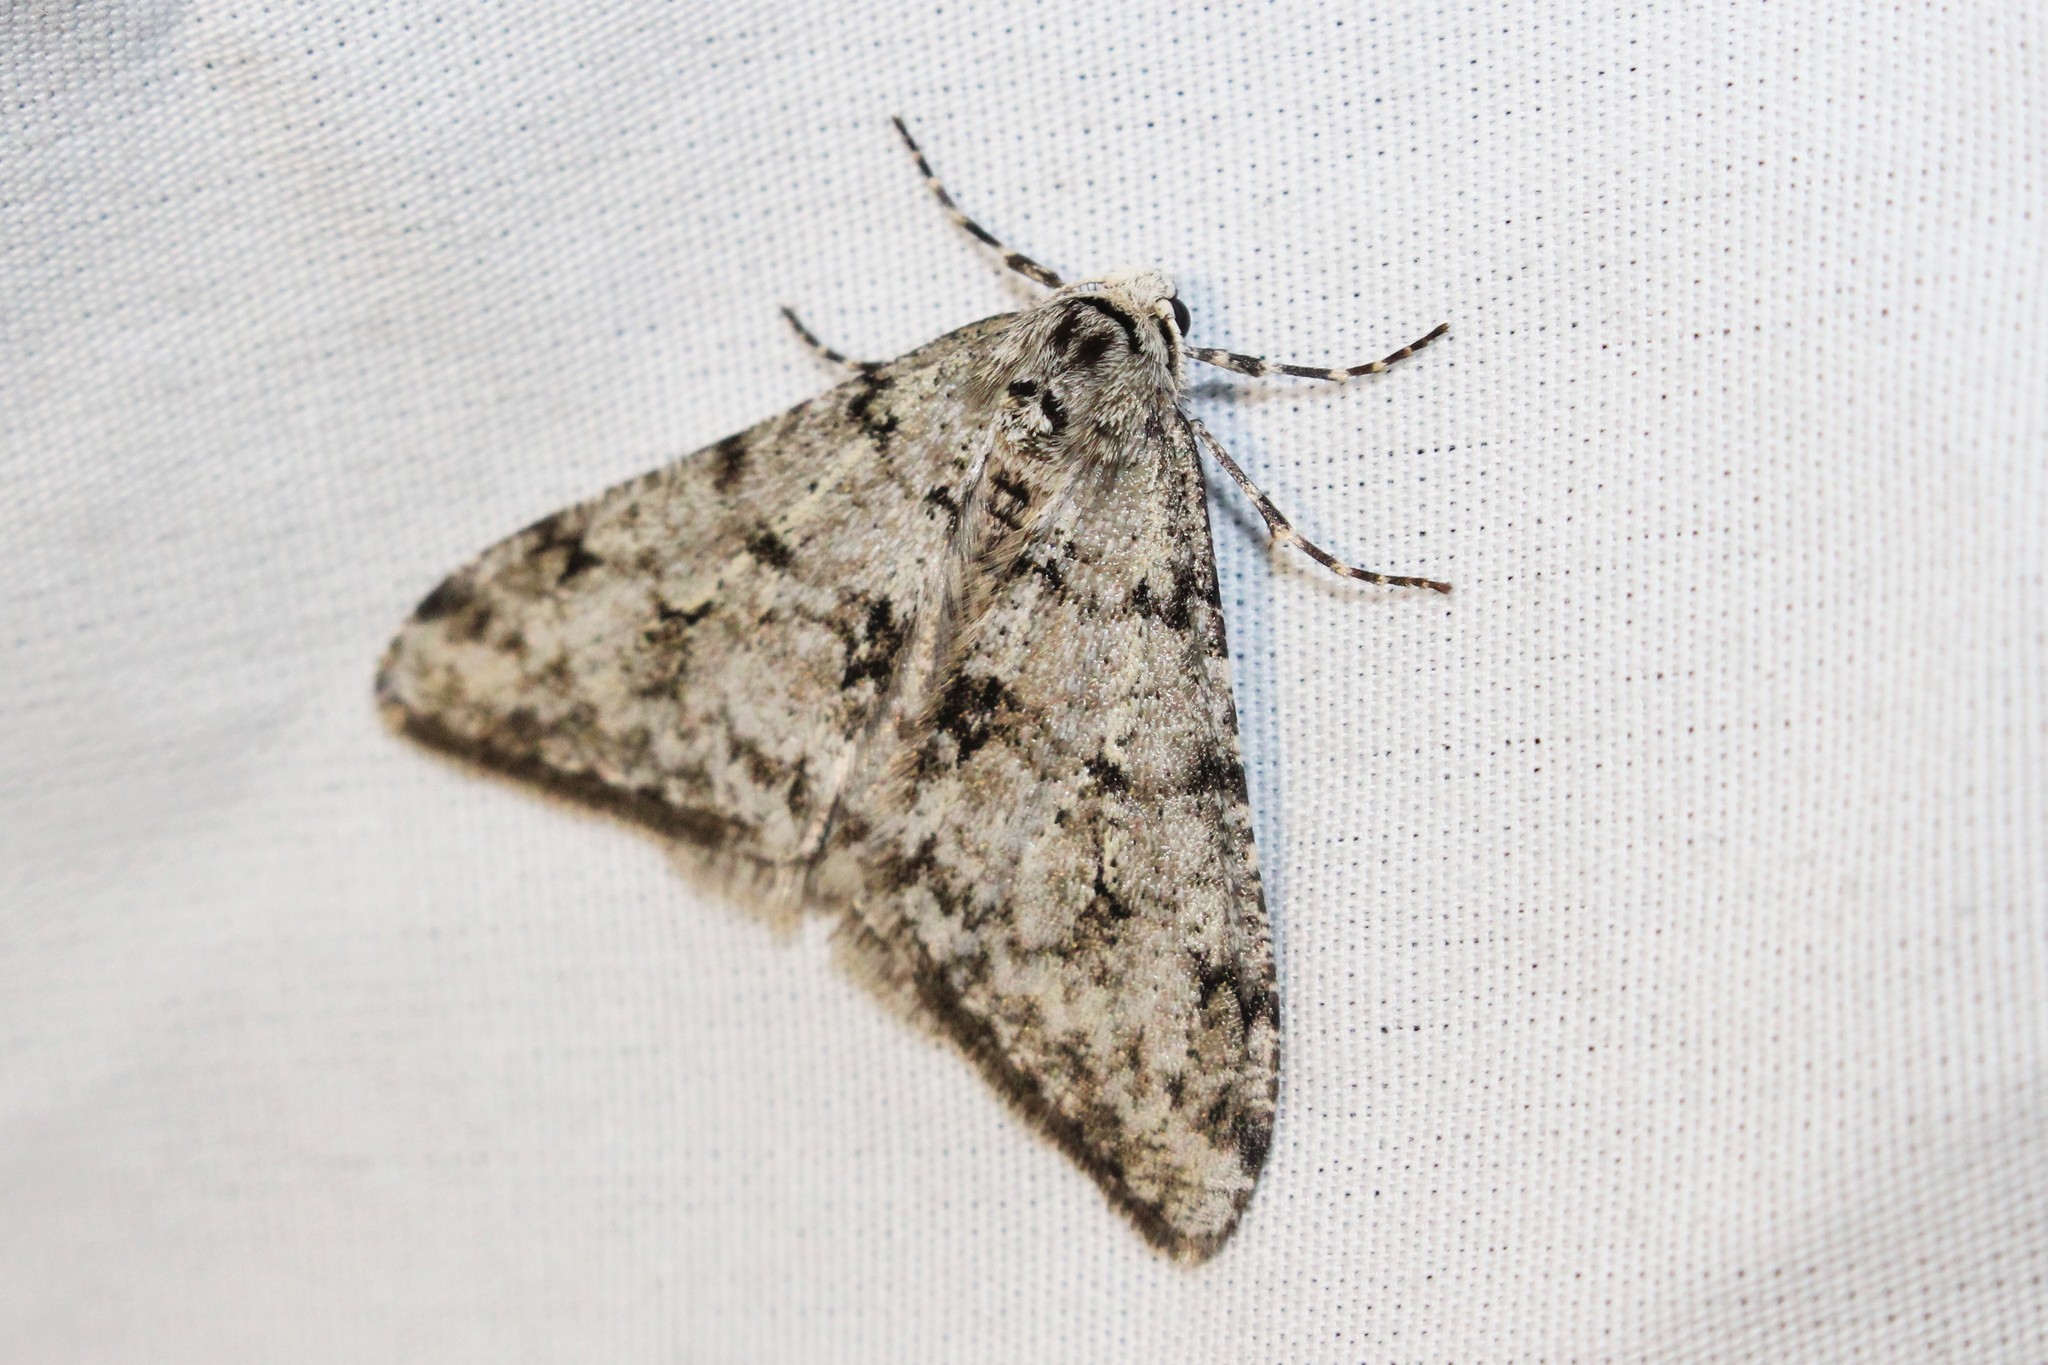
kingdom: Animalia
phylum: Arthropoda
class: Insecta
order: Lepidoptera
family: Geometridae
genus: Phigalia
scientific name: Phigalia strigataria
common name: Small phigalia
